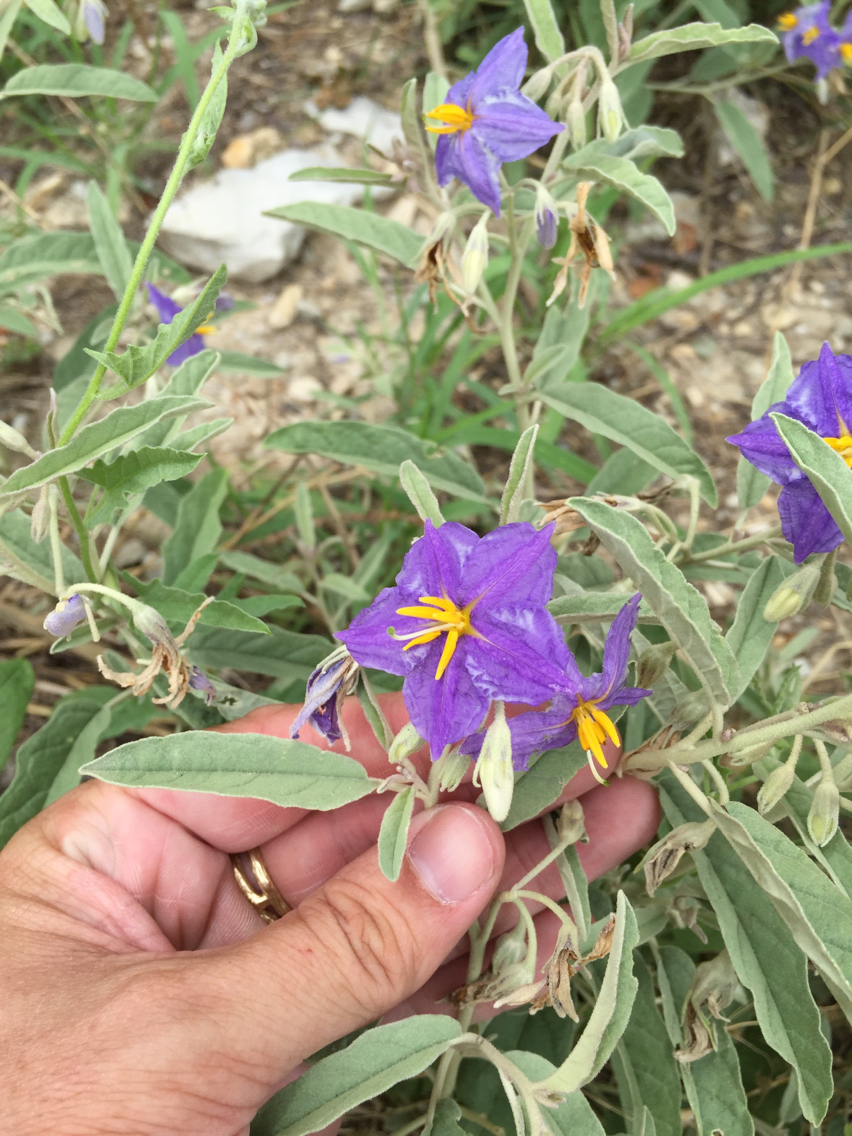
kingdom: Plantae
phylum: Tracheophyta
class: Magnoliopsida
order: Solanales
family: Solanaceae
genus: Solanum
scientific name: Solanum elaeagnifolium
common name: Silverleaf nightshade
